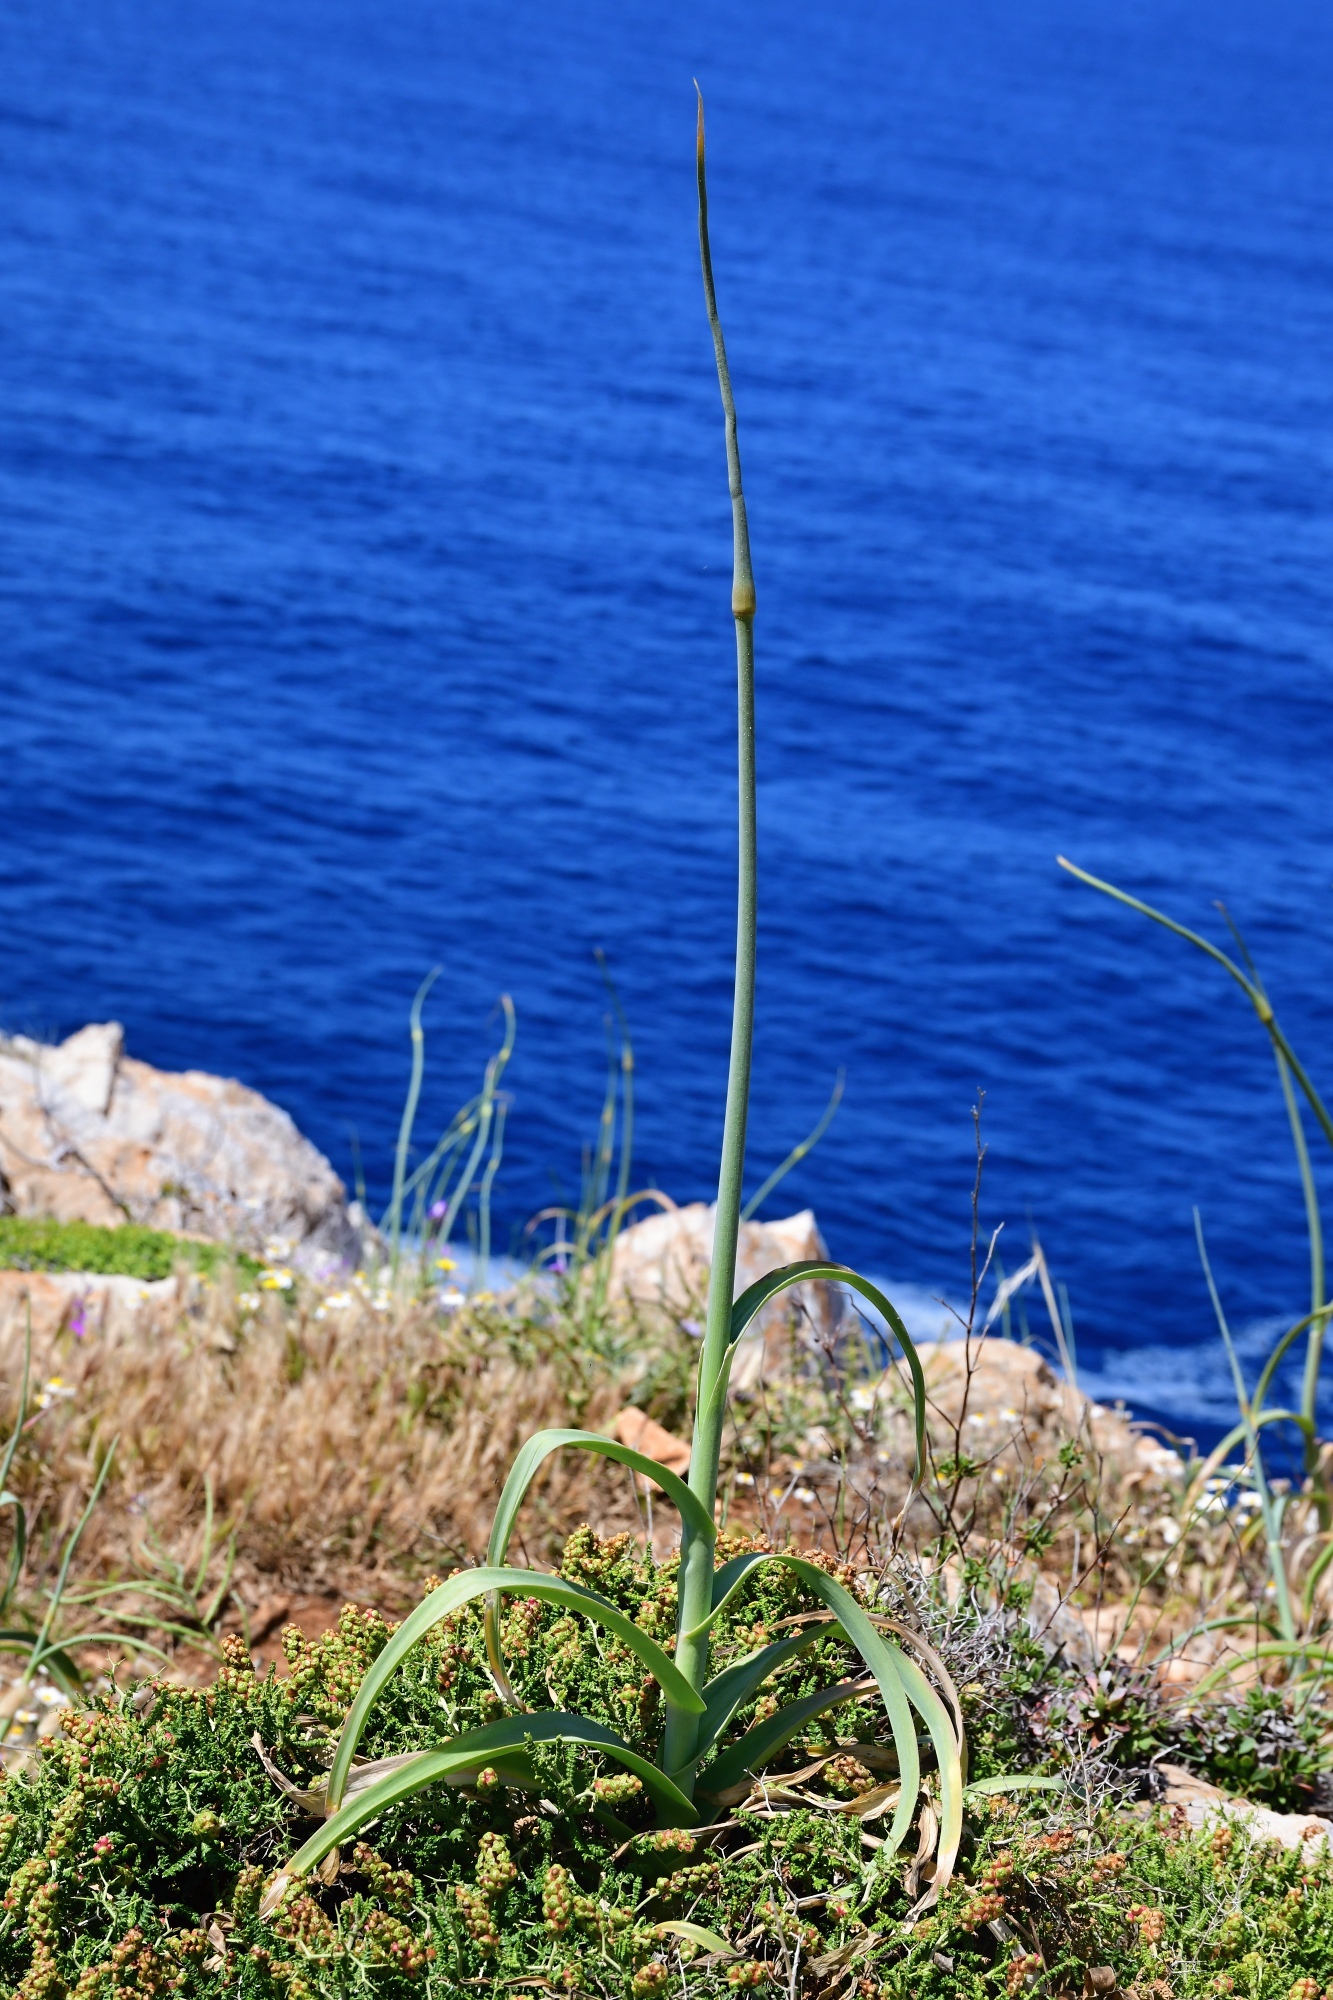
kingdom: Plantae
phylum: Tracheophyta
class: Liliopsida
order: Asparagales
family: Amaryllidaceae
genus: Allium
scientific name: Allium commutatum
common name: Sea garlic
